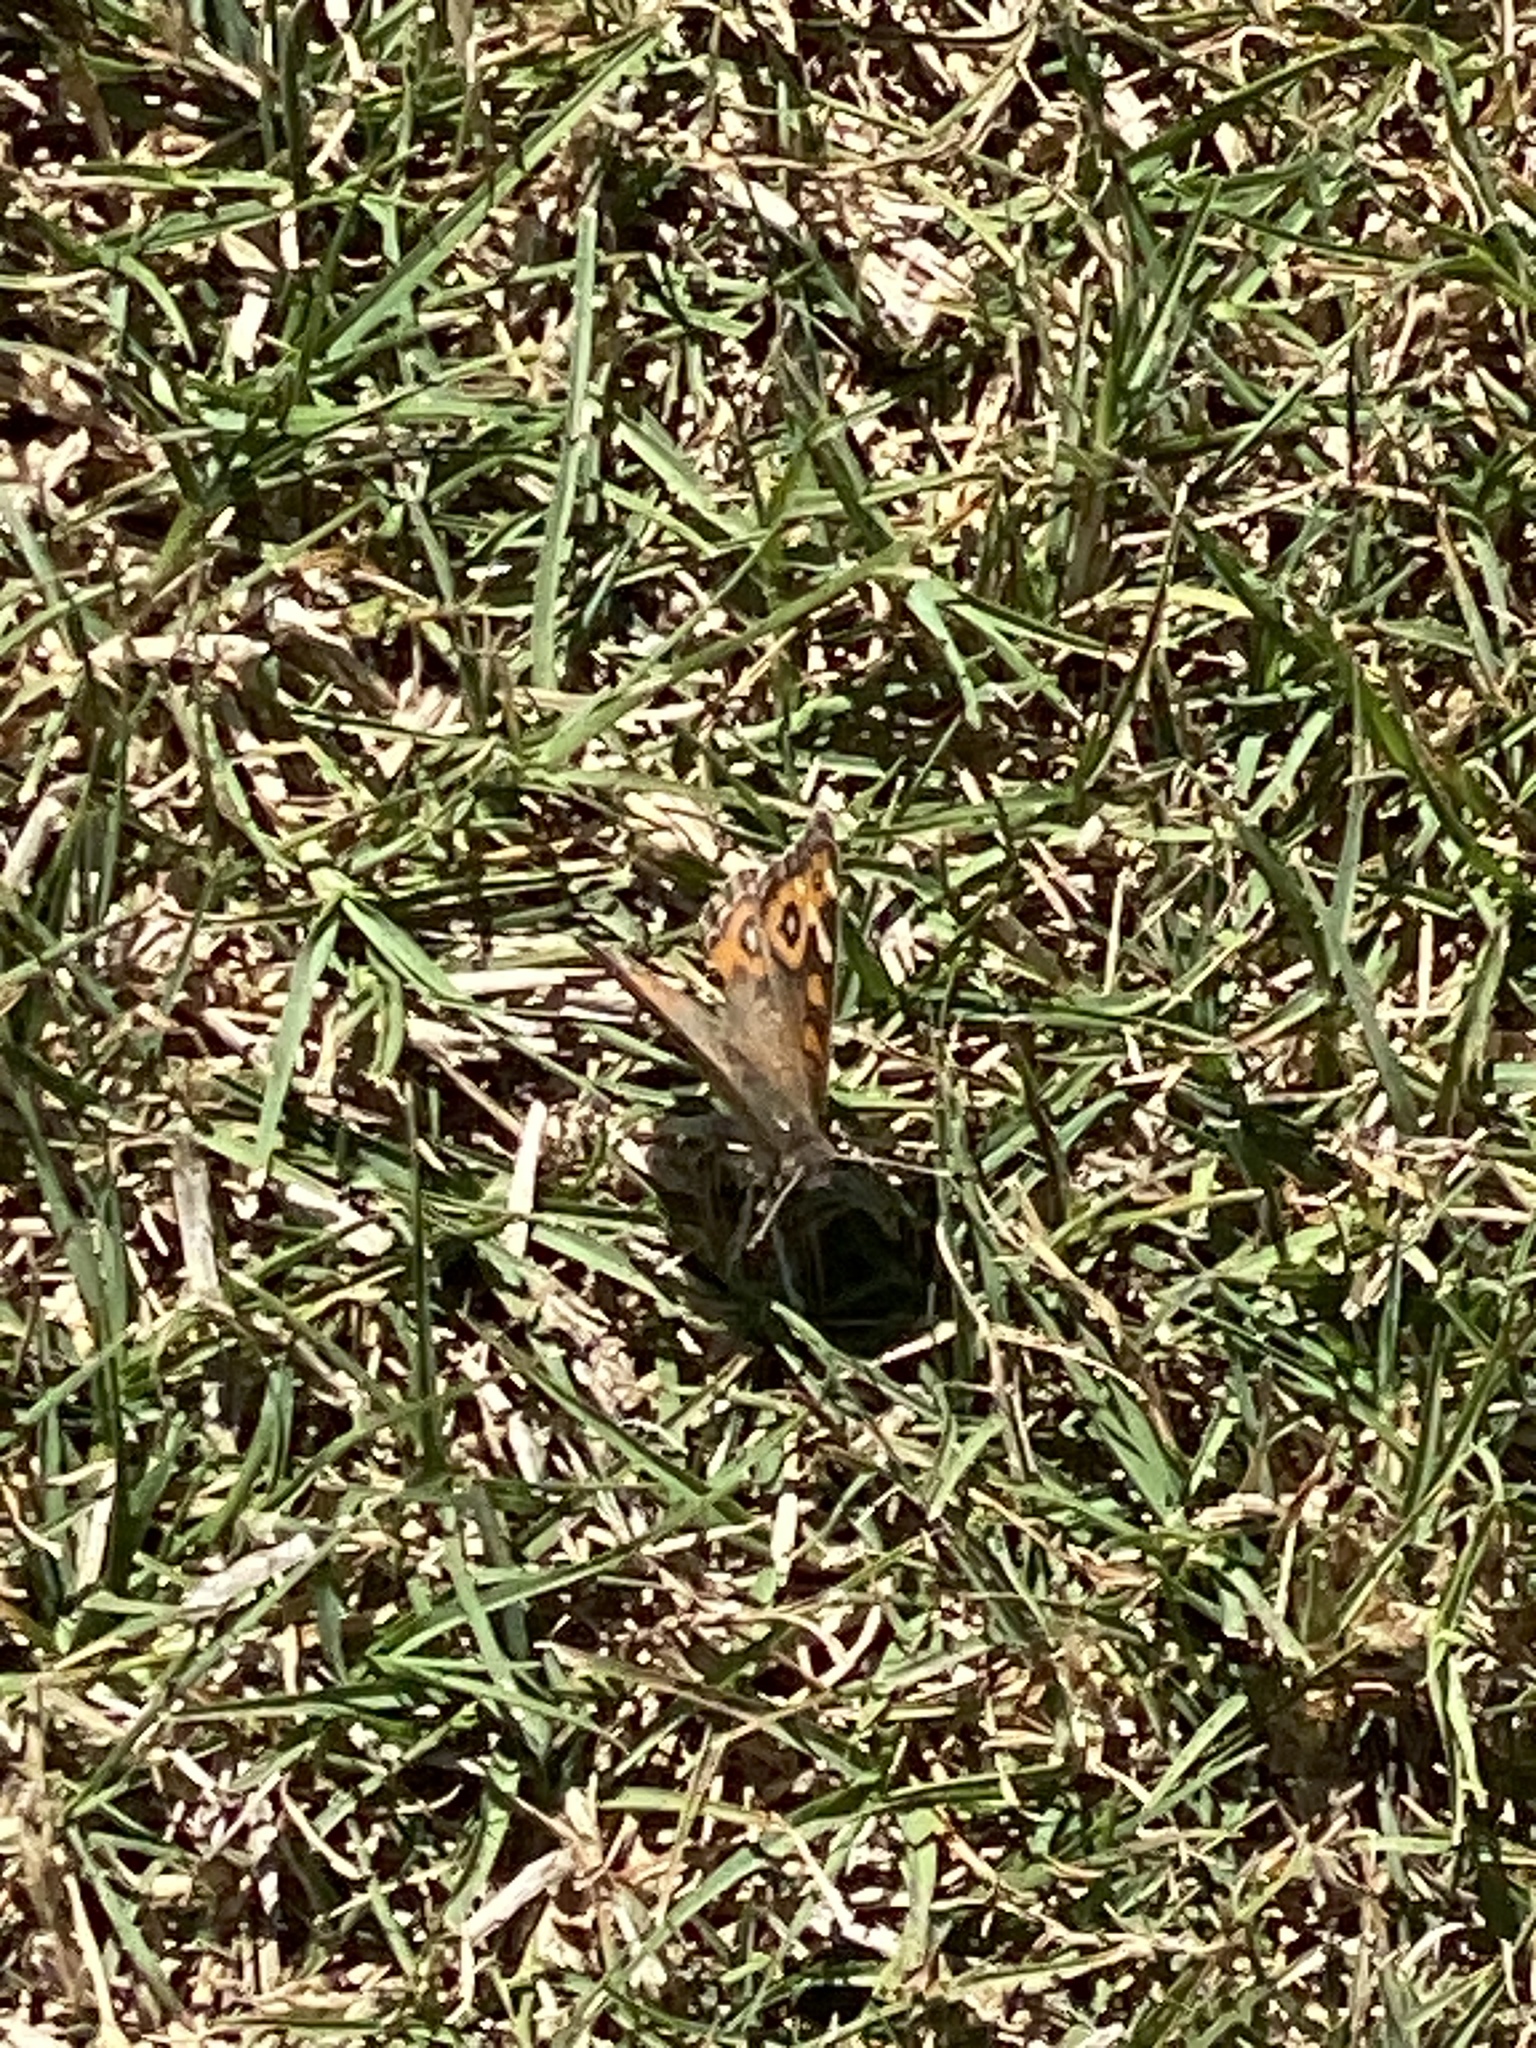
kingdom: Animalia
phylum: Arthropoda
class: Insecta
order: Lepidoptera
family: Nymphalidae
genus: Junonia
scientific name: Junonia villida
